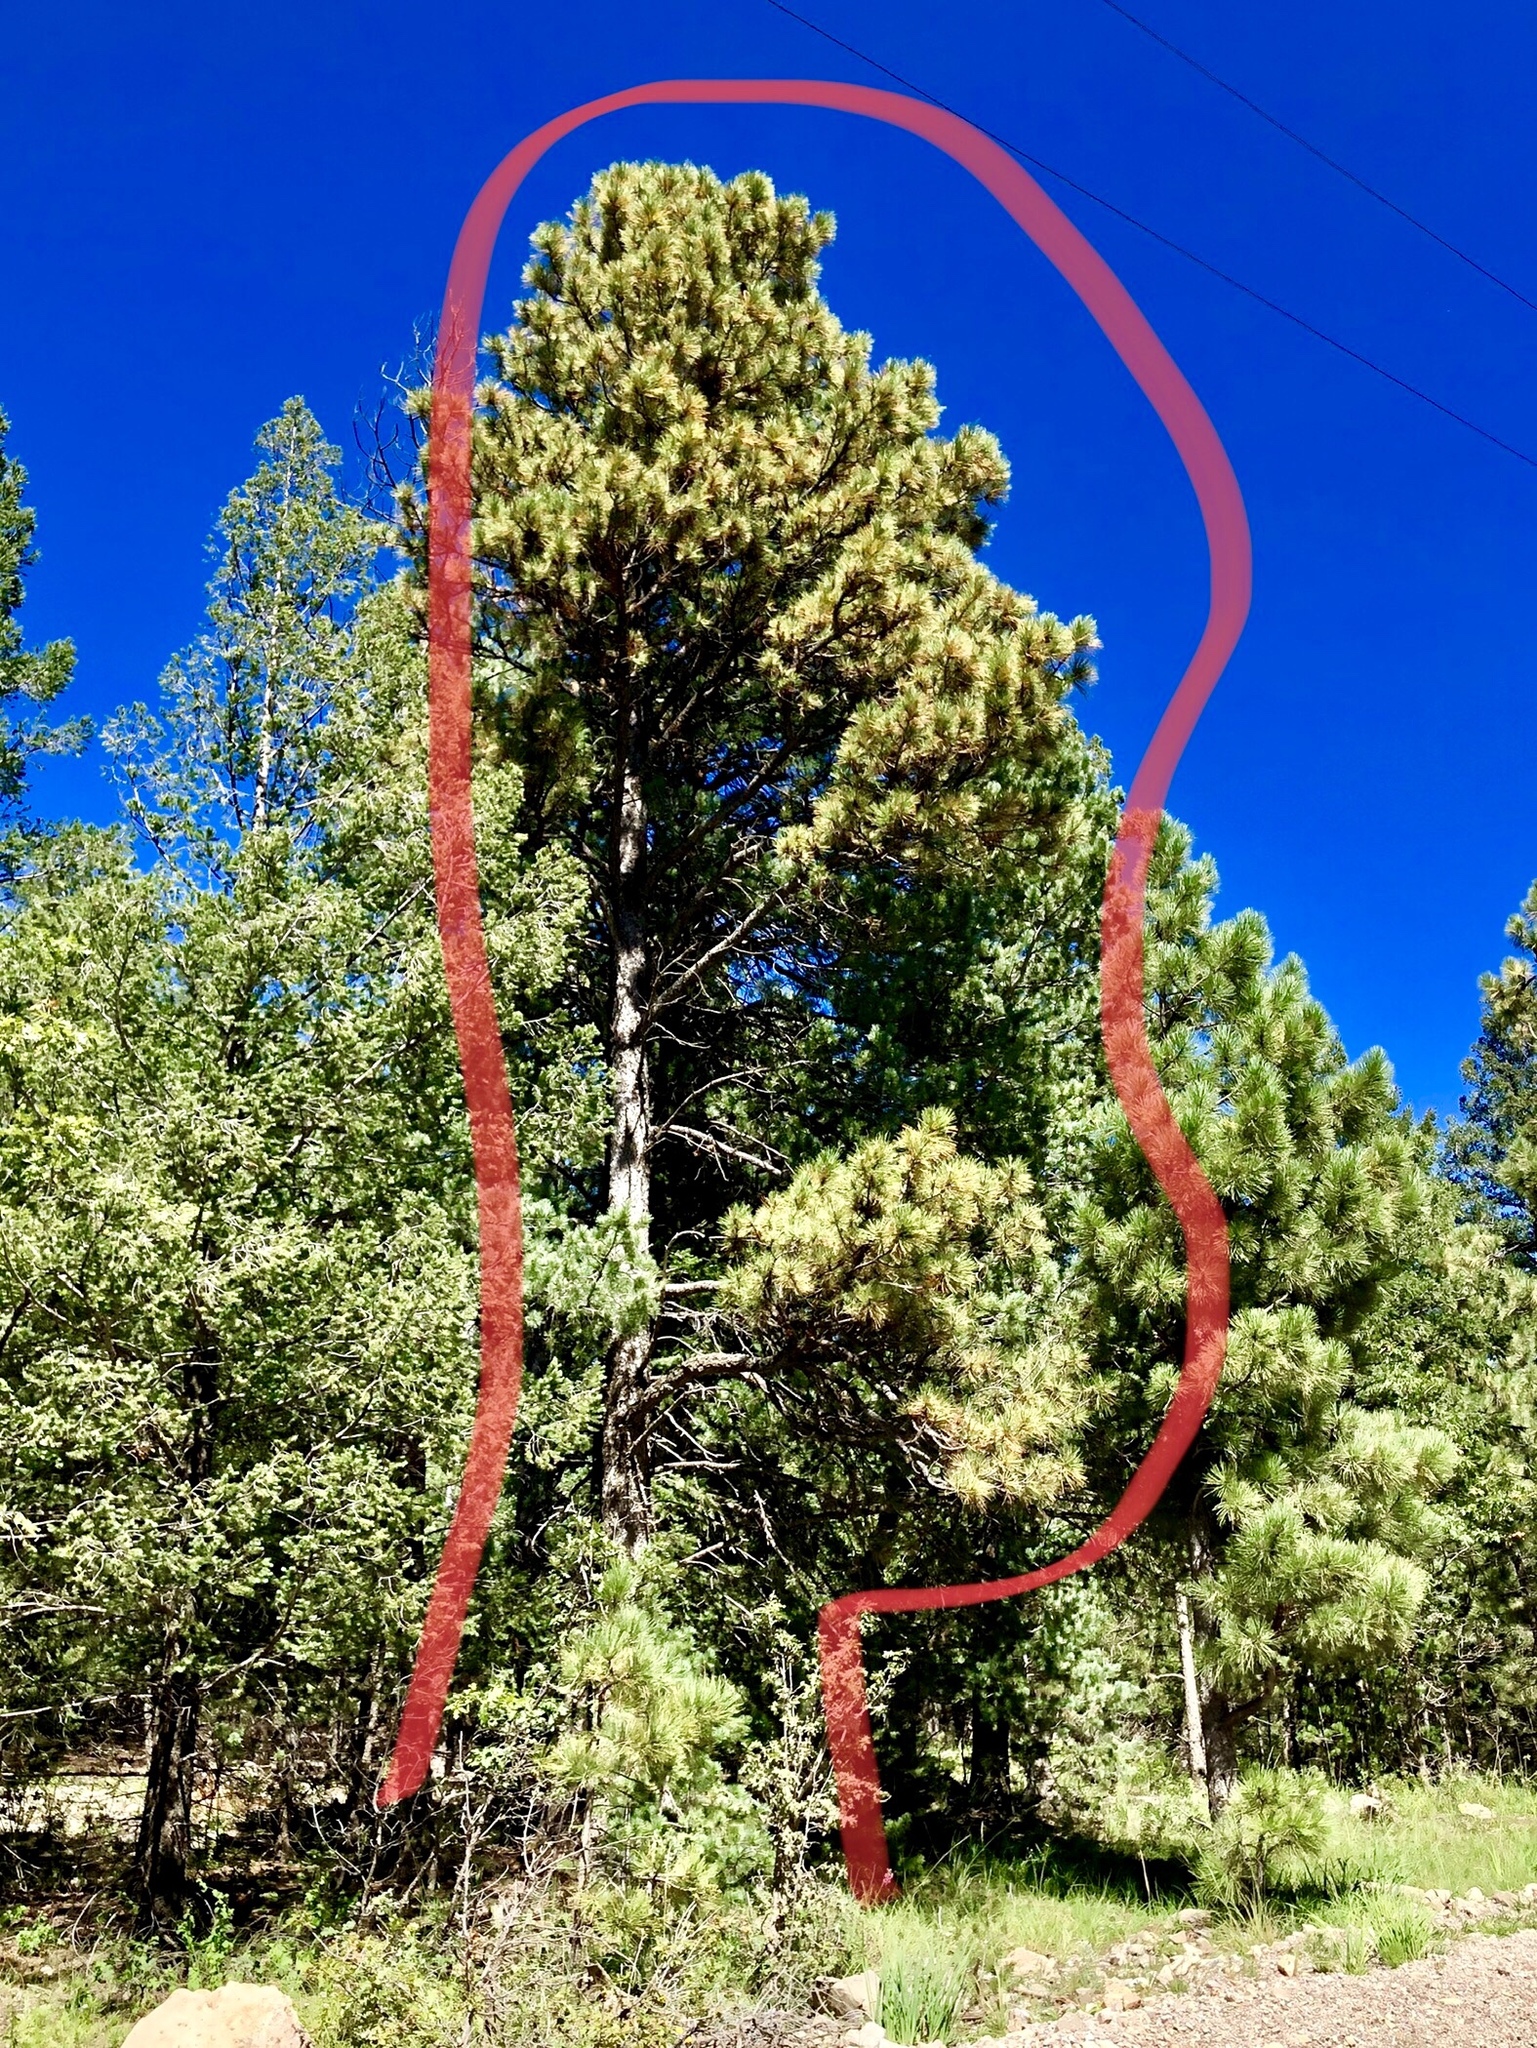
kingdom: Plantae
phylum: Tracheophyta
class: Pinopsida
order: Pinales
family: Pinaceae
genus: Pinus
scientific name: Pinus ponderosa
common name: Western yellow-pine
